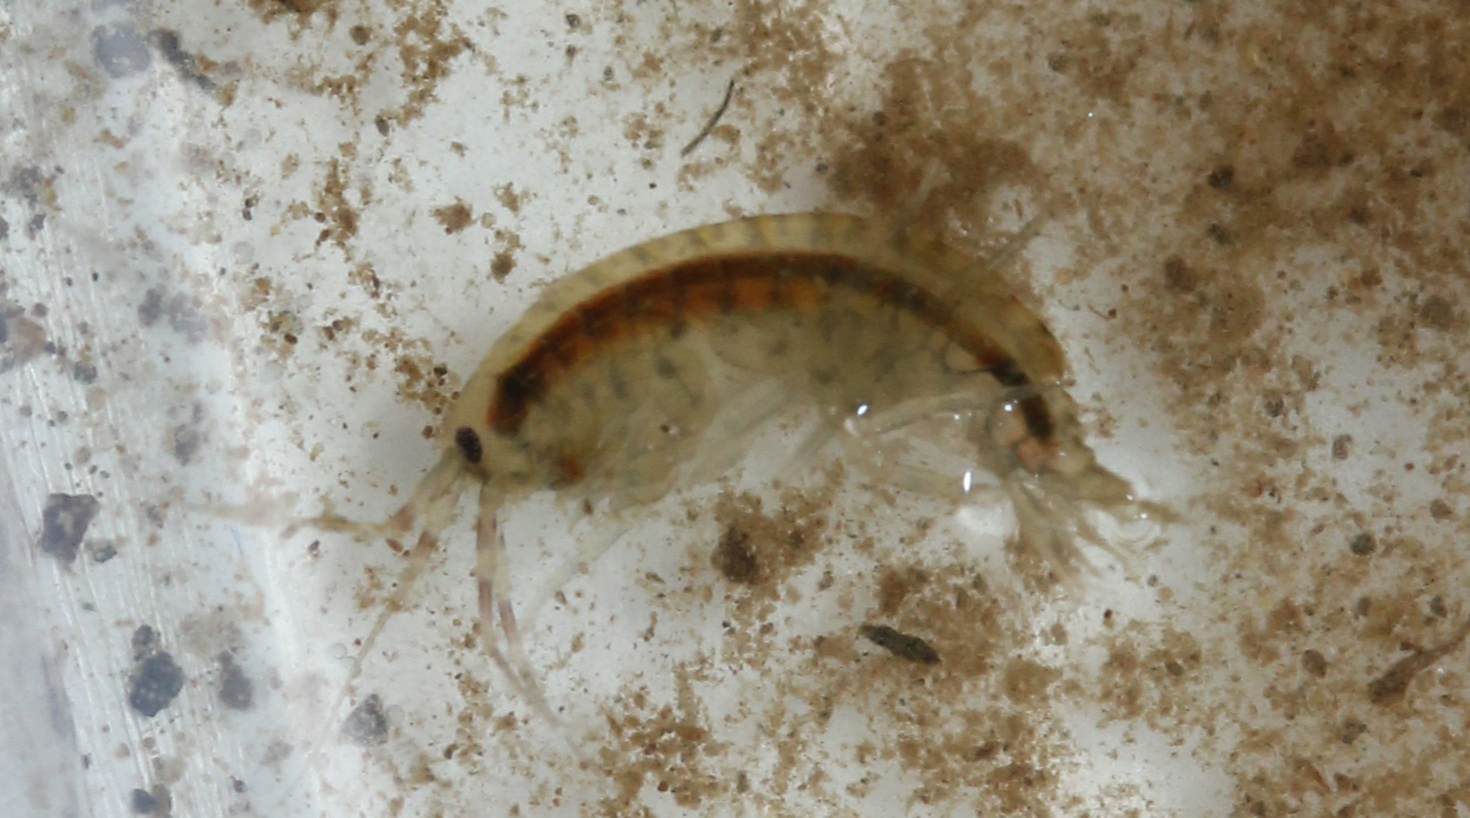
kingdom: Animalia
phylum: Arthropoda
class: Malacostraca
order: Amphipoda
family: Gammaridae
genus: Gammarus
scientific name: Gammarus fasciatus
